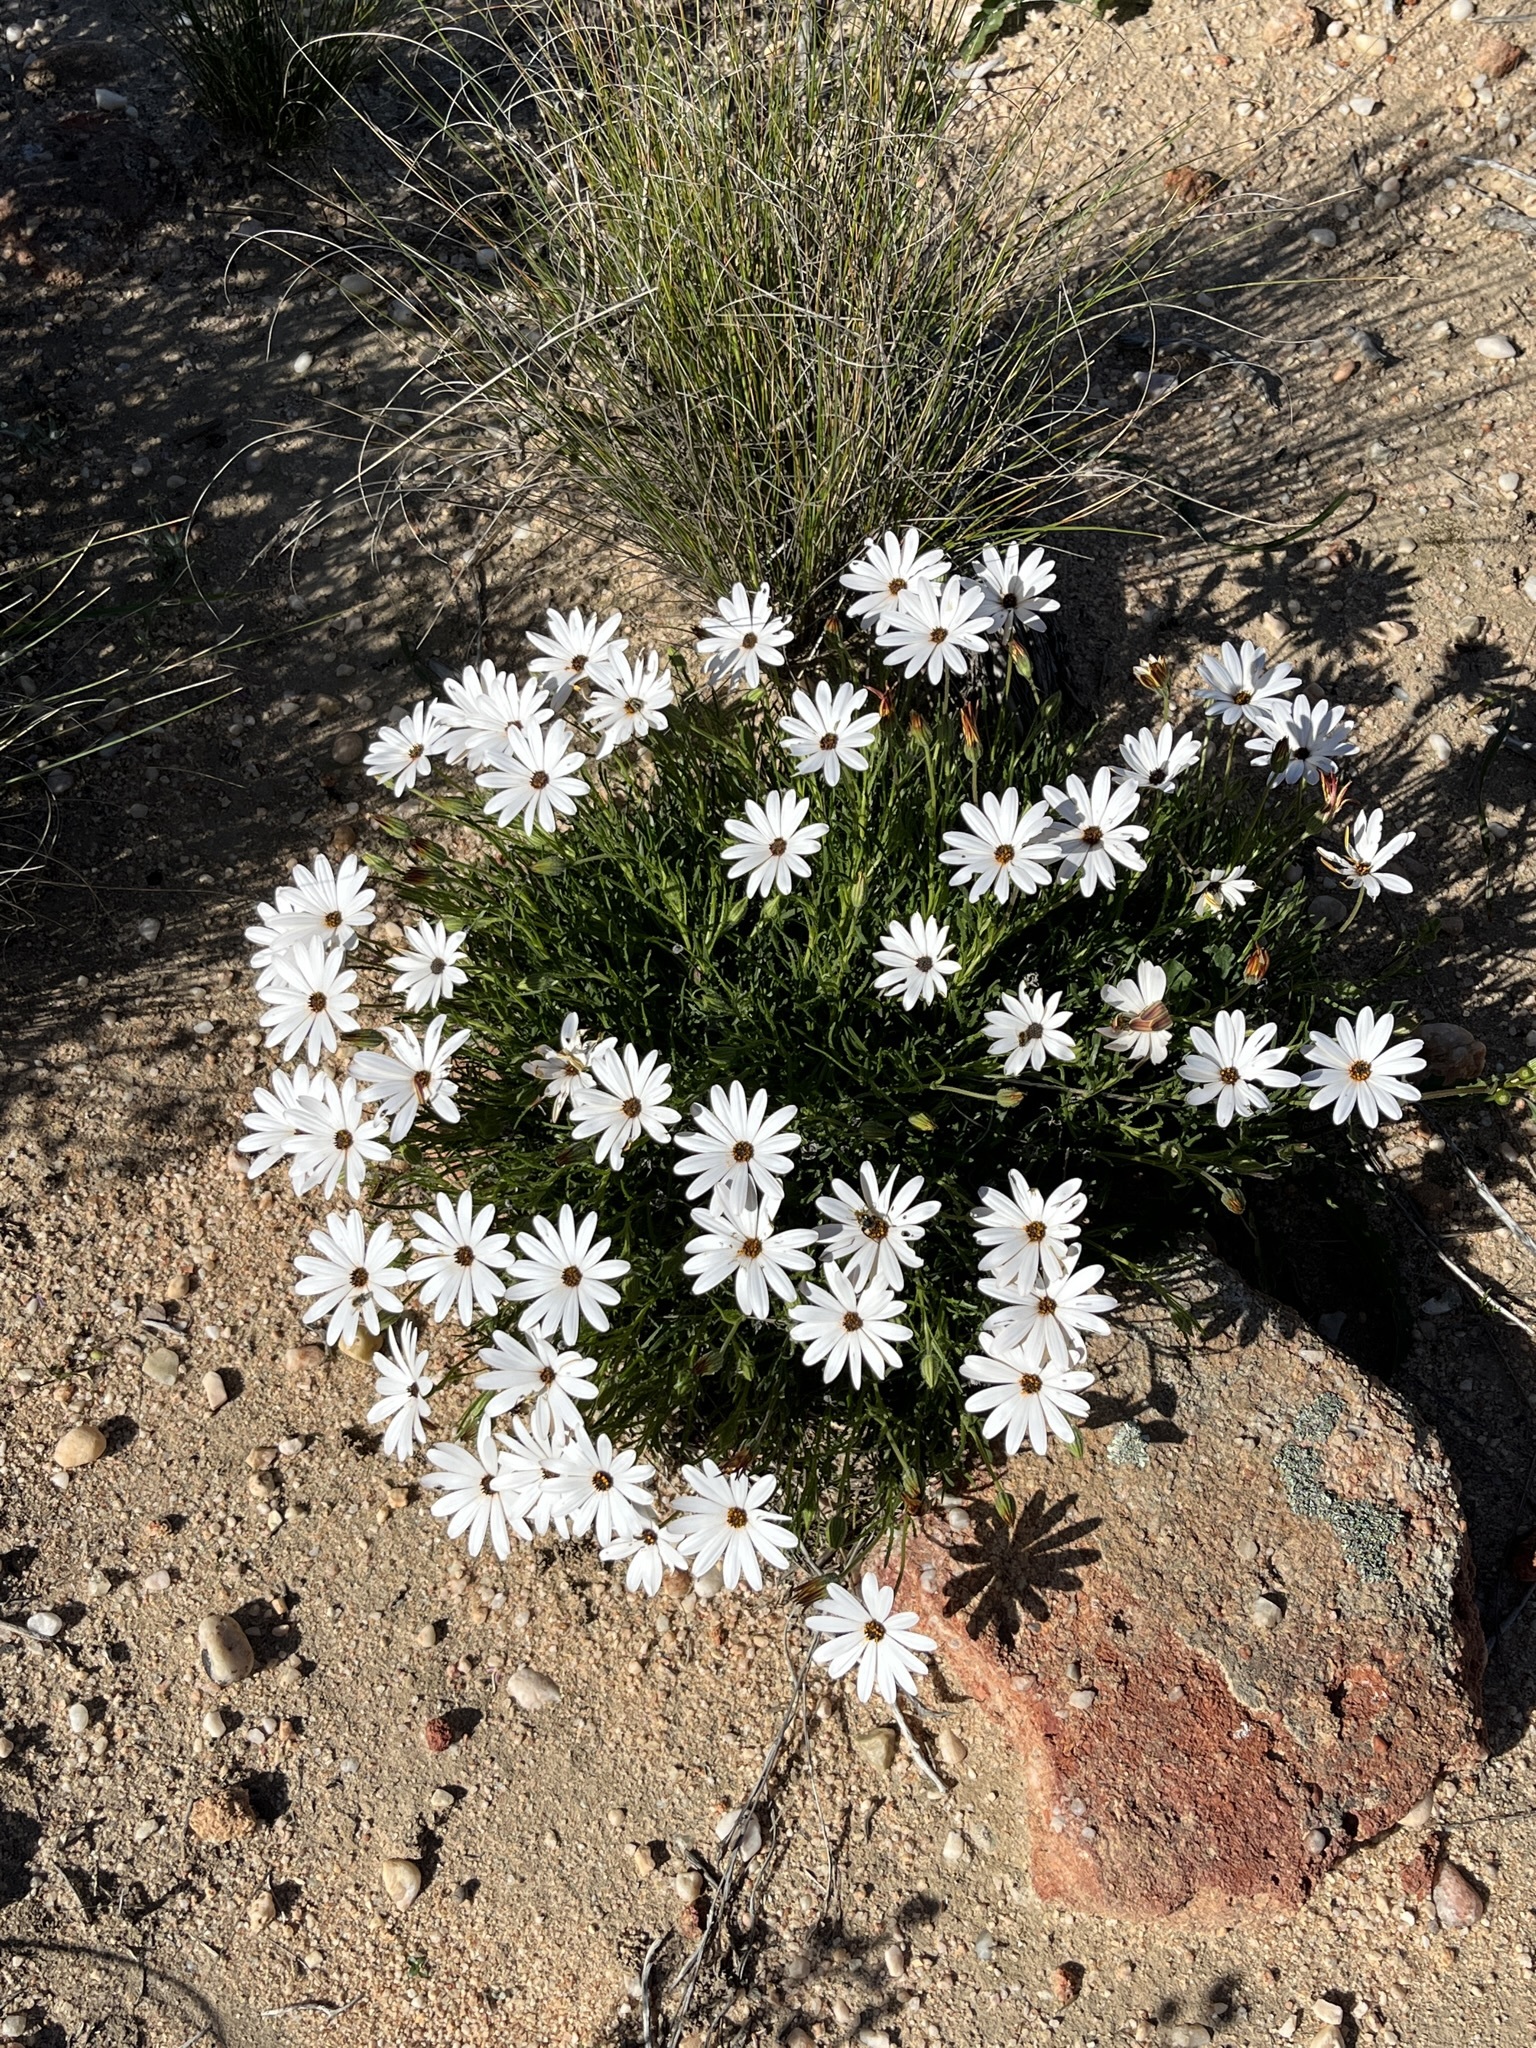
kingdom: Plantae
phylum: Tracheophyta
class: Magnoliopsida
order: Asterales
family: Asteraceae
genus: Dimorphotheca
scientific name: Dimorphotheca dregei
